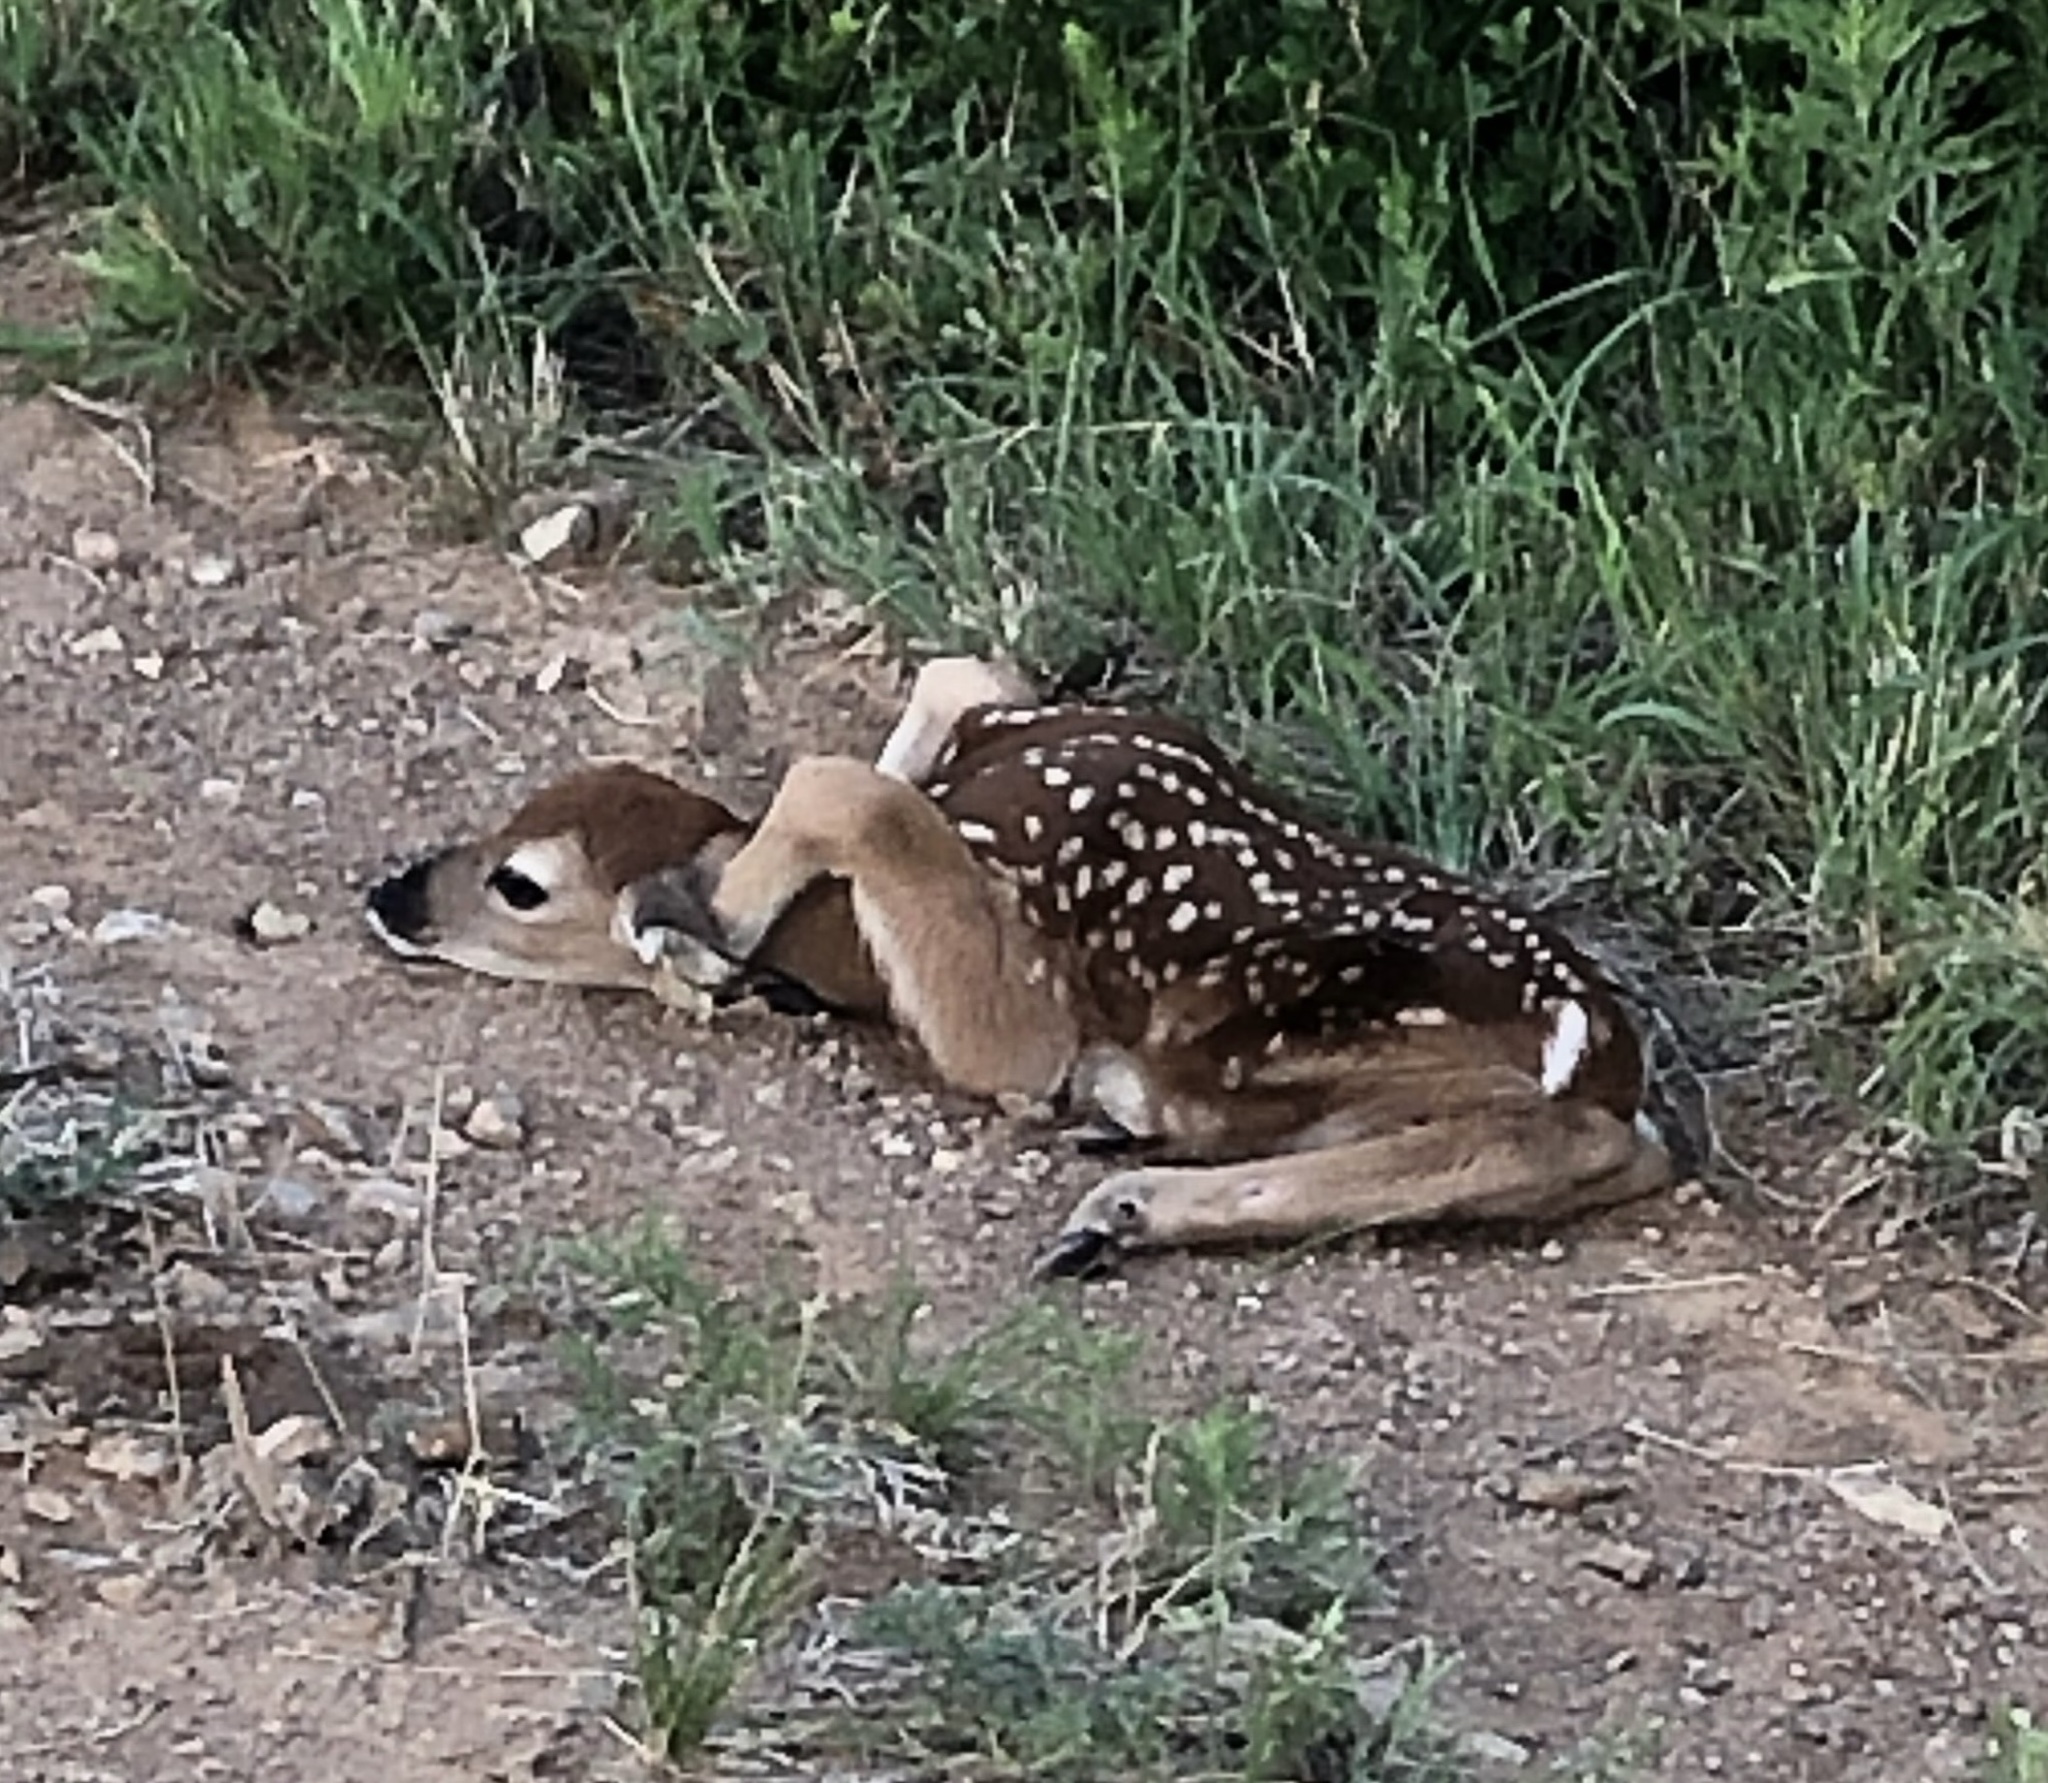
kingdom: Animalia
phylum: Chordata
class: Mammalia
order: Artiodactyla
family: Cervidae
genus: Odocoileus
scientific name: Odocoileus virginianus
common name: White-tailed deer
